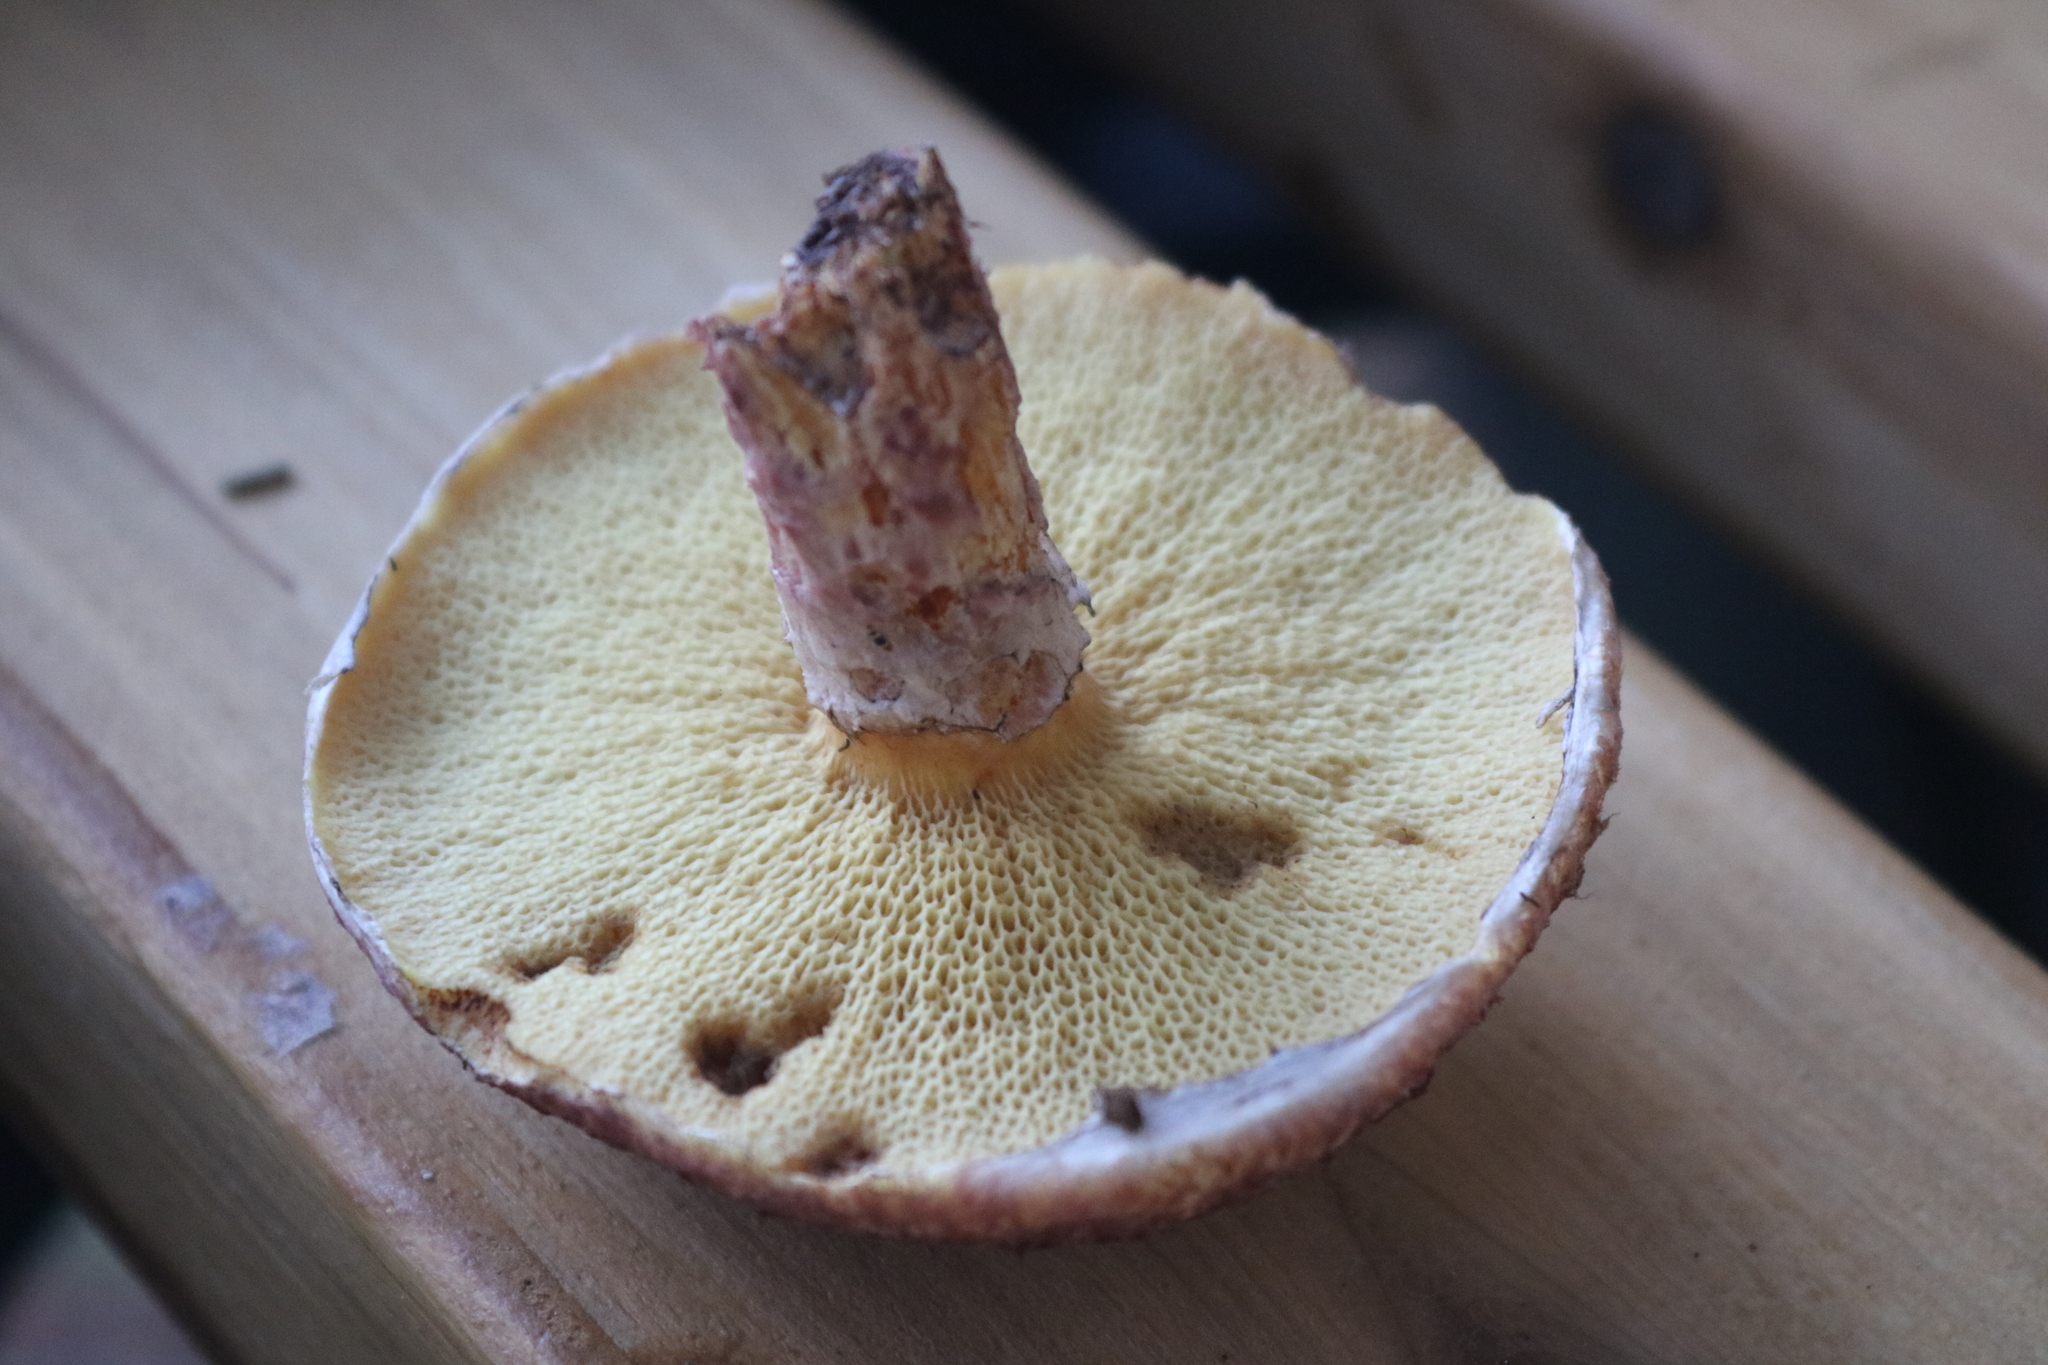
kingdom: Fungi
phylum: Basidiomycota
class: Agaricomycetes
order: Boletales
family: Suillaceae
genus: Suillus
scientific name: Suillus spraguei
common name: Painted suillus
